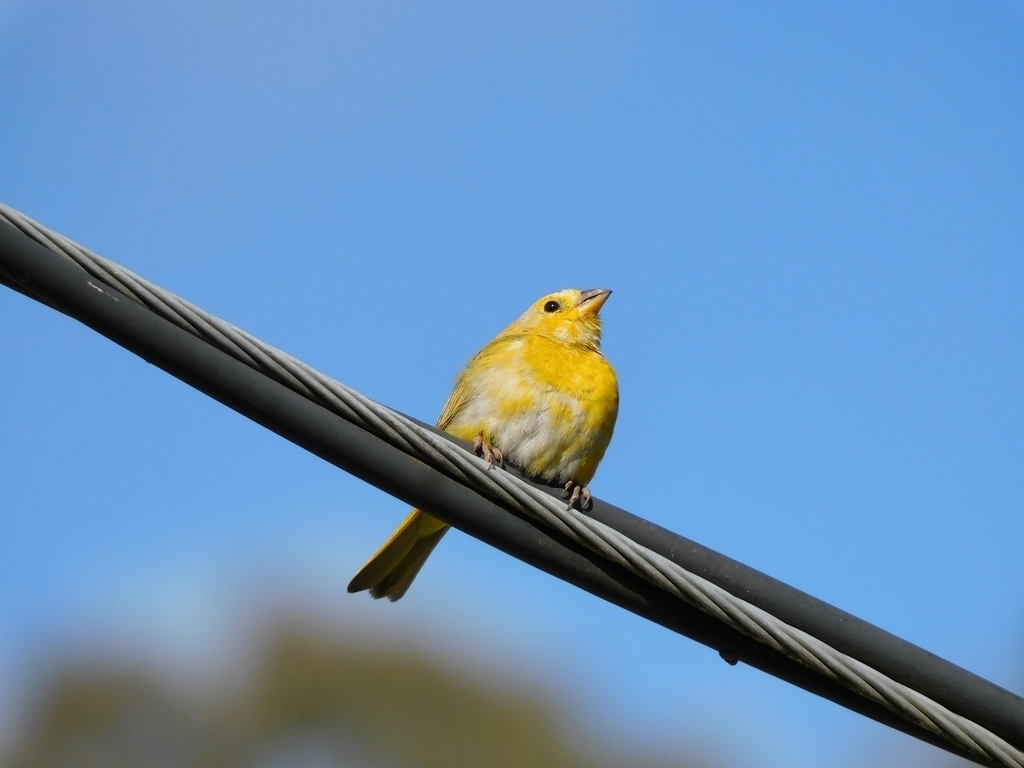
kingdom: Animalia
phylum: Chordata
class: Aves
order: Passeriformes
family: Thraupidae
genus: Sicalis
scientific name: Sicalis flaveola
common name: Saffron finch
